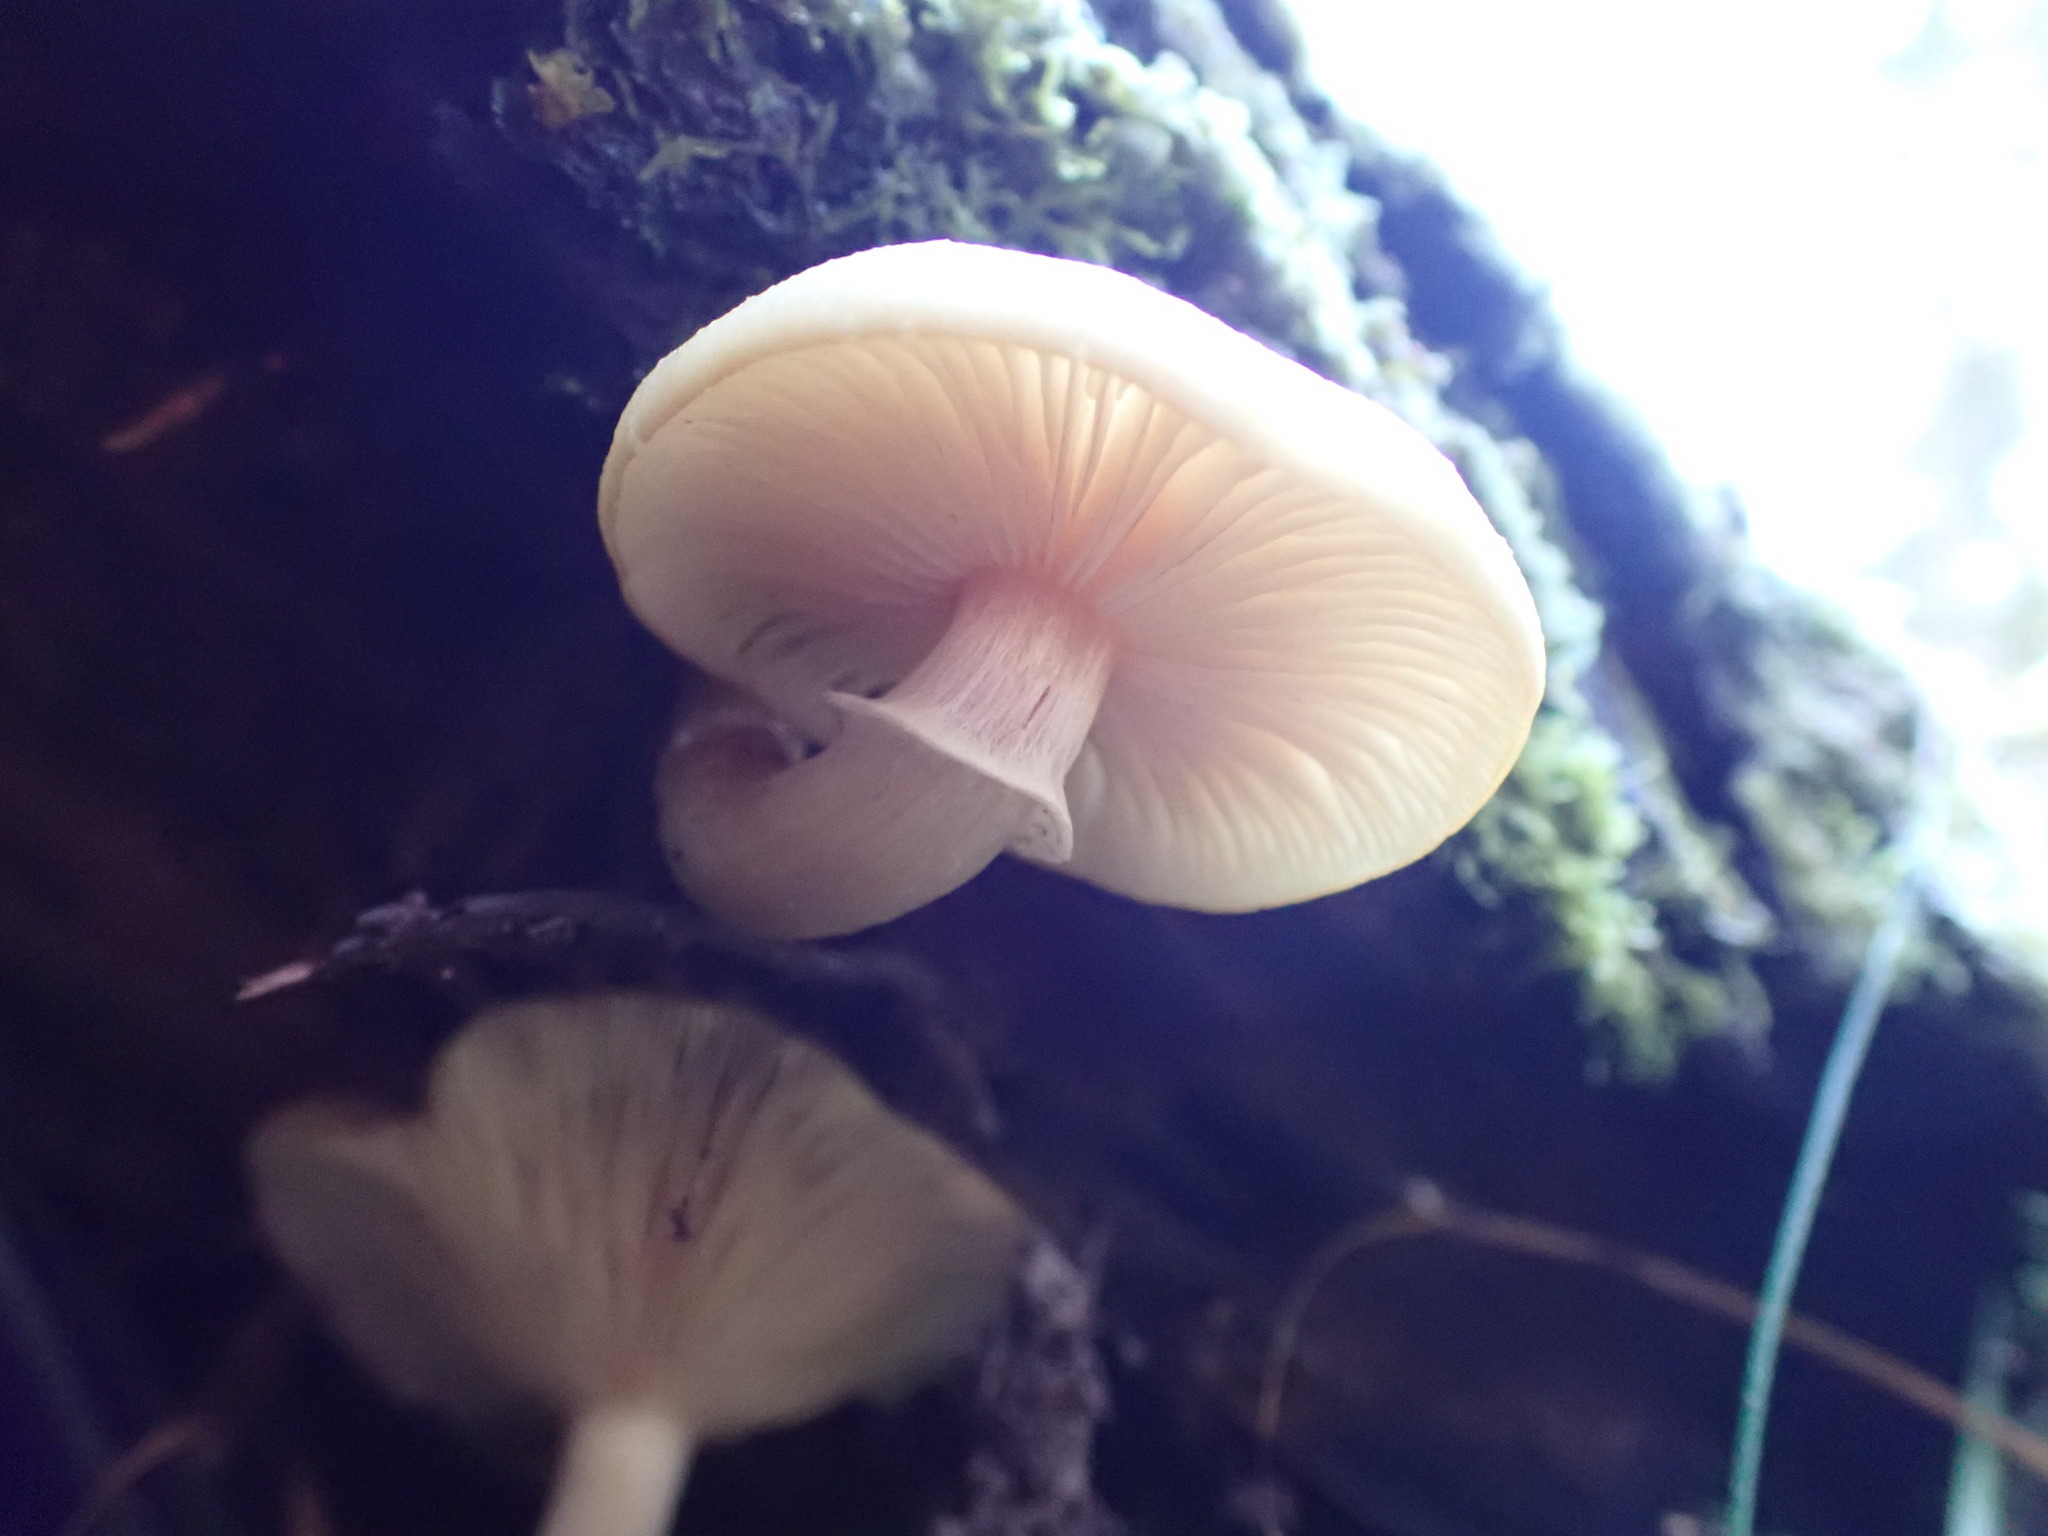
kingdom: Fungi
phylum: Basidiomycota
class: Agaricomycetes
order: Agaricales
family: Physalacriaceae
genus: Armillaria
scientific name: Armillaria novae-zelandiae
